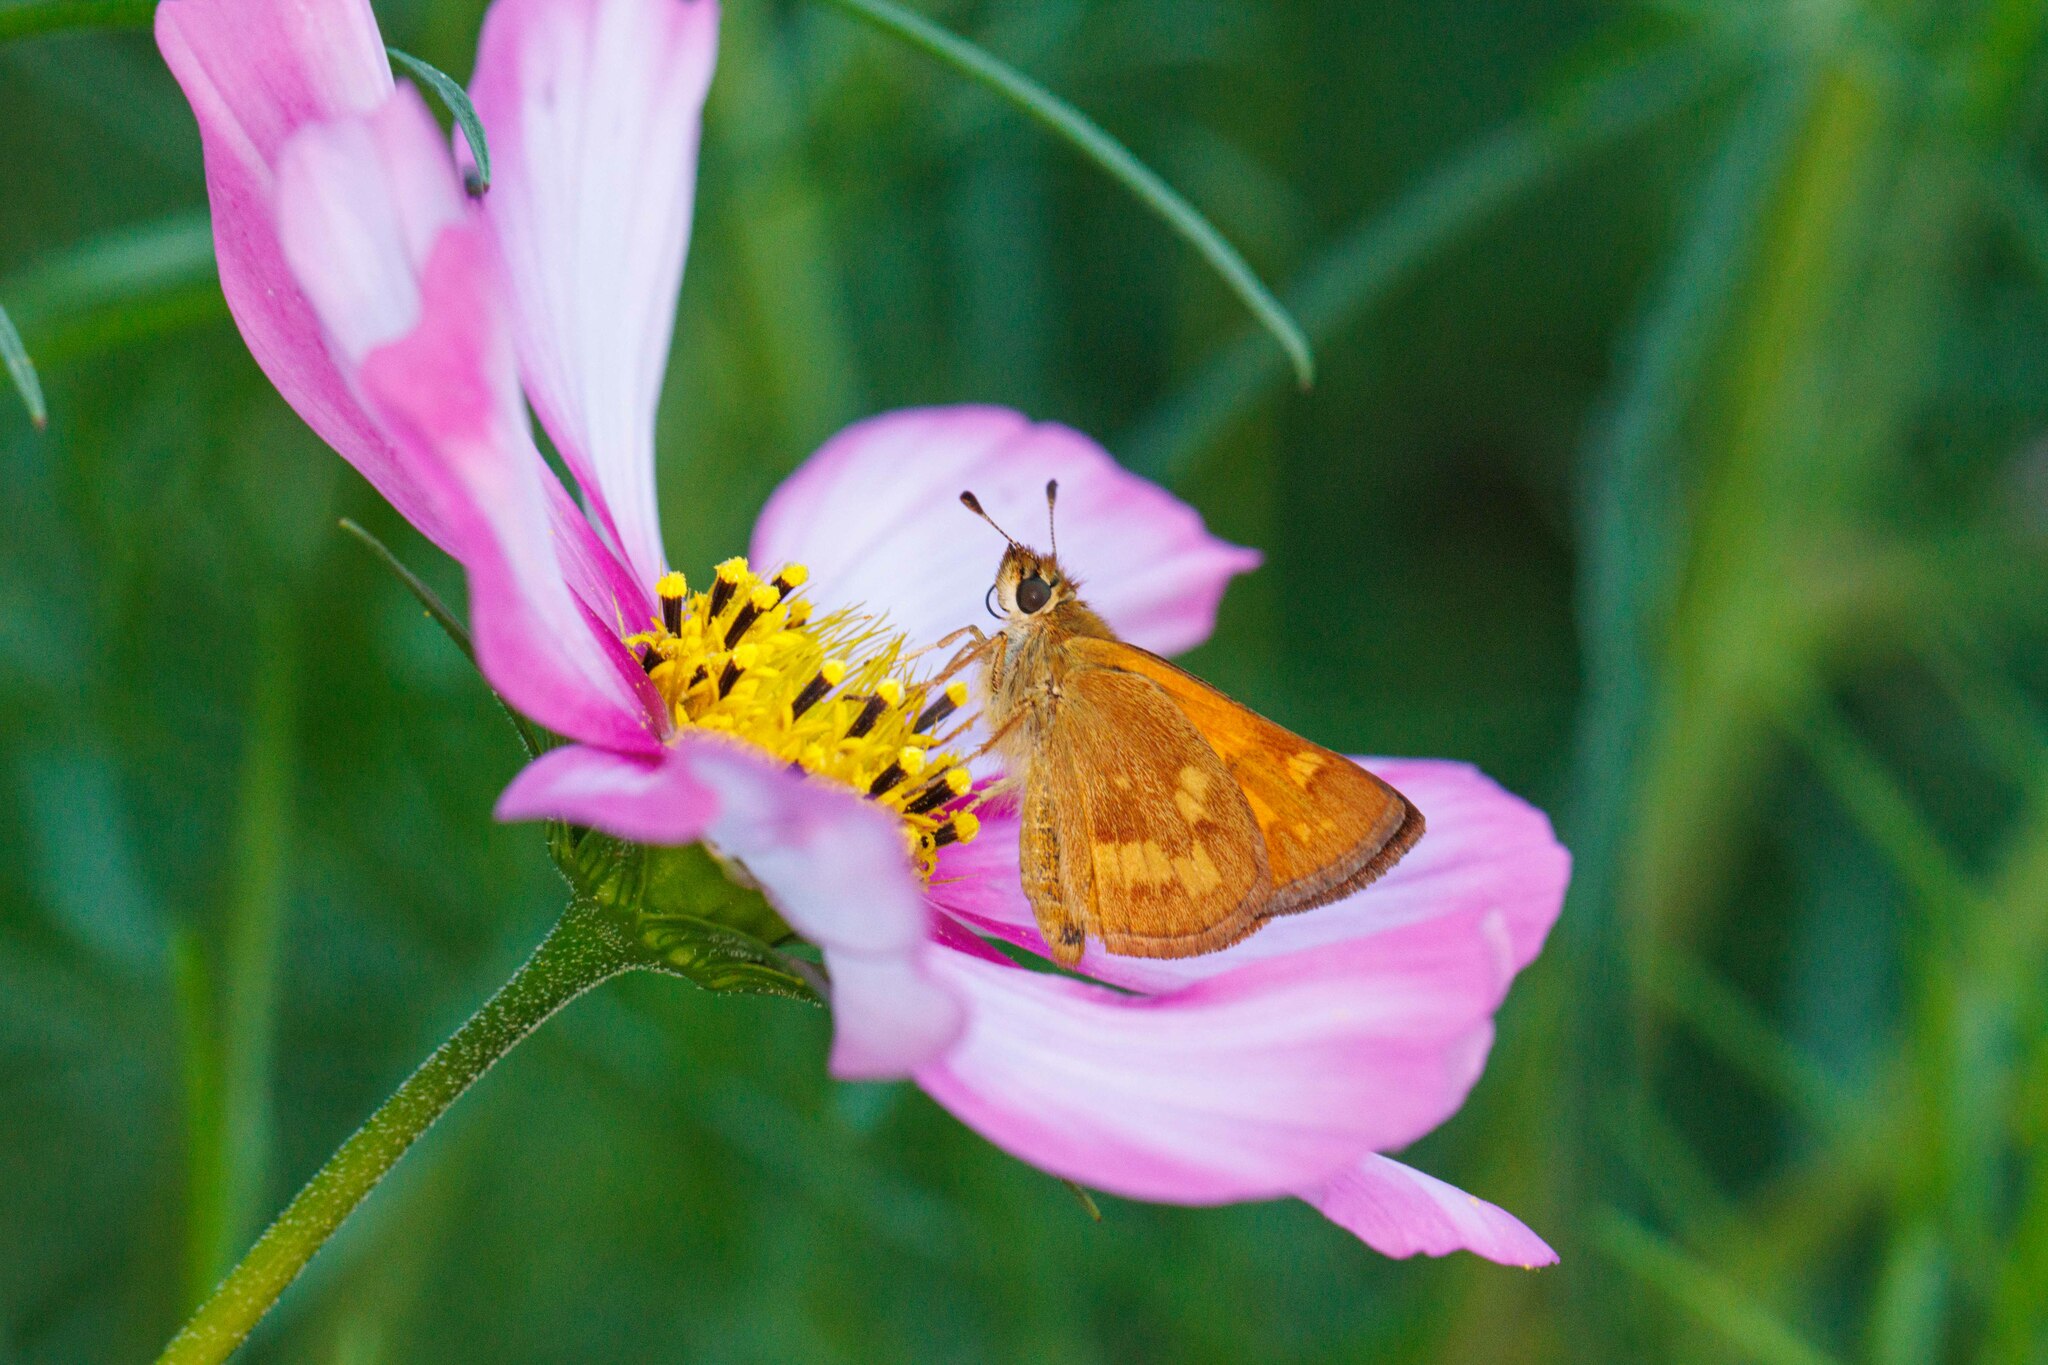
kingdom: Animalia
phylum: Arthropoda
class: Insecta
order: Lepidoptera
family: Hesperiidae
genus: Ochlodes
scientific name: Ochlodes sylvanoides
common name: Woodland skipper
